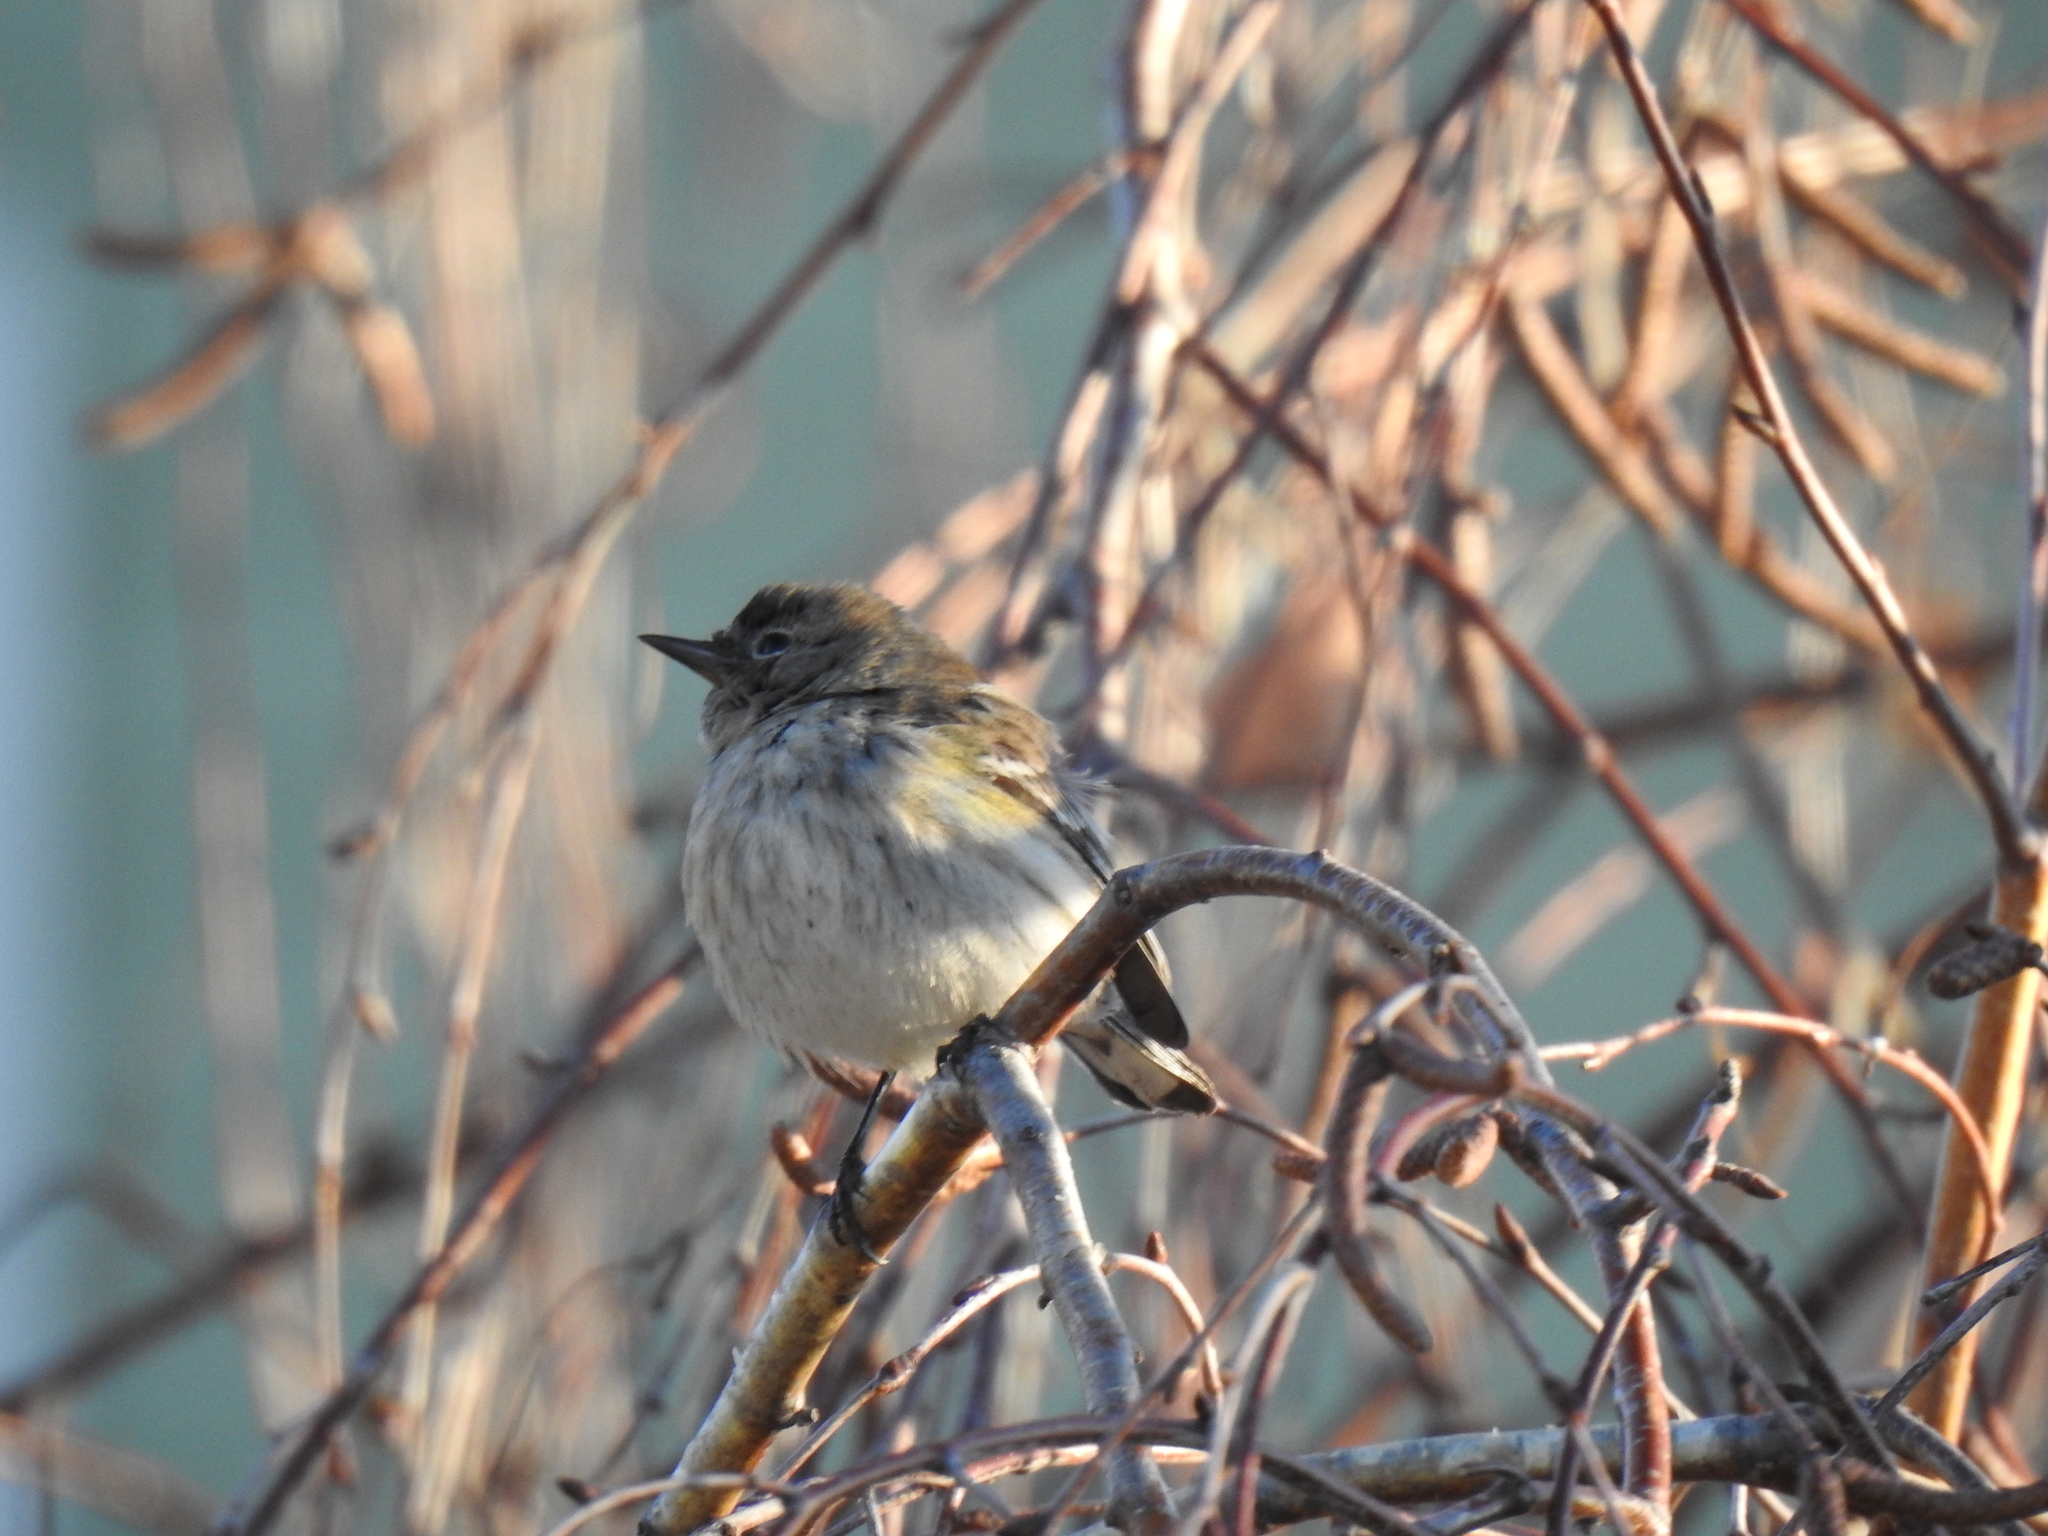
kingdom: Animalia
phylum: Chordata
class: Aves
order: Passeriformes
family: Parulidae
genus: Setophaga
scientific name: Setophaga coronata
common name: Myrtle warbler
